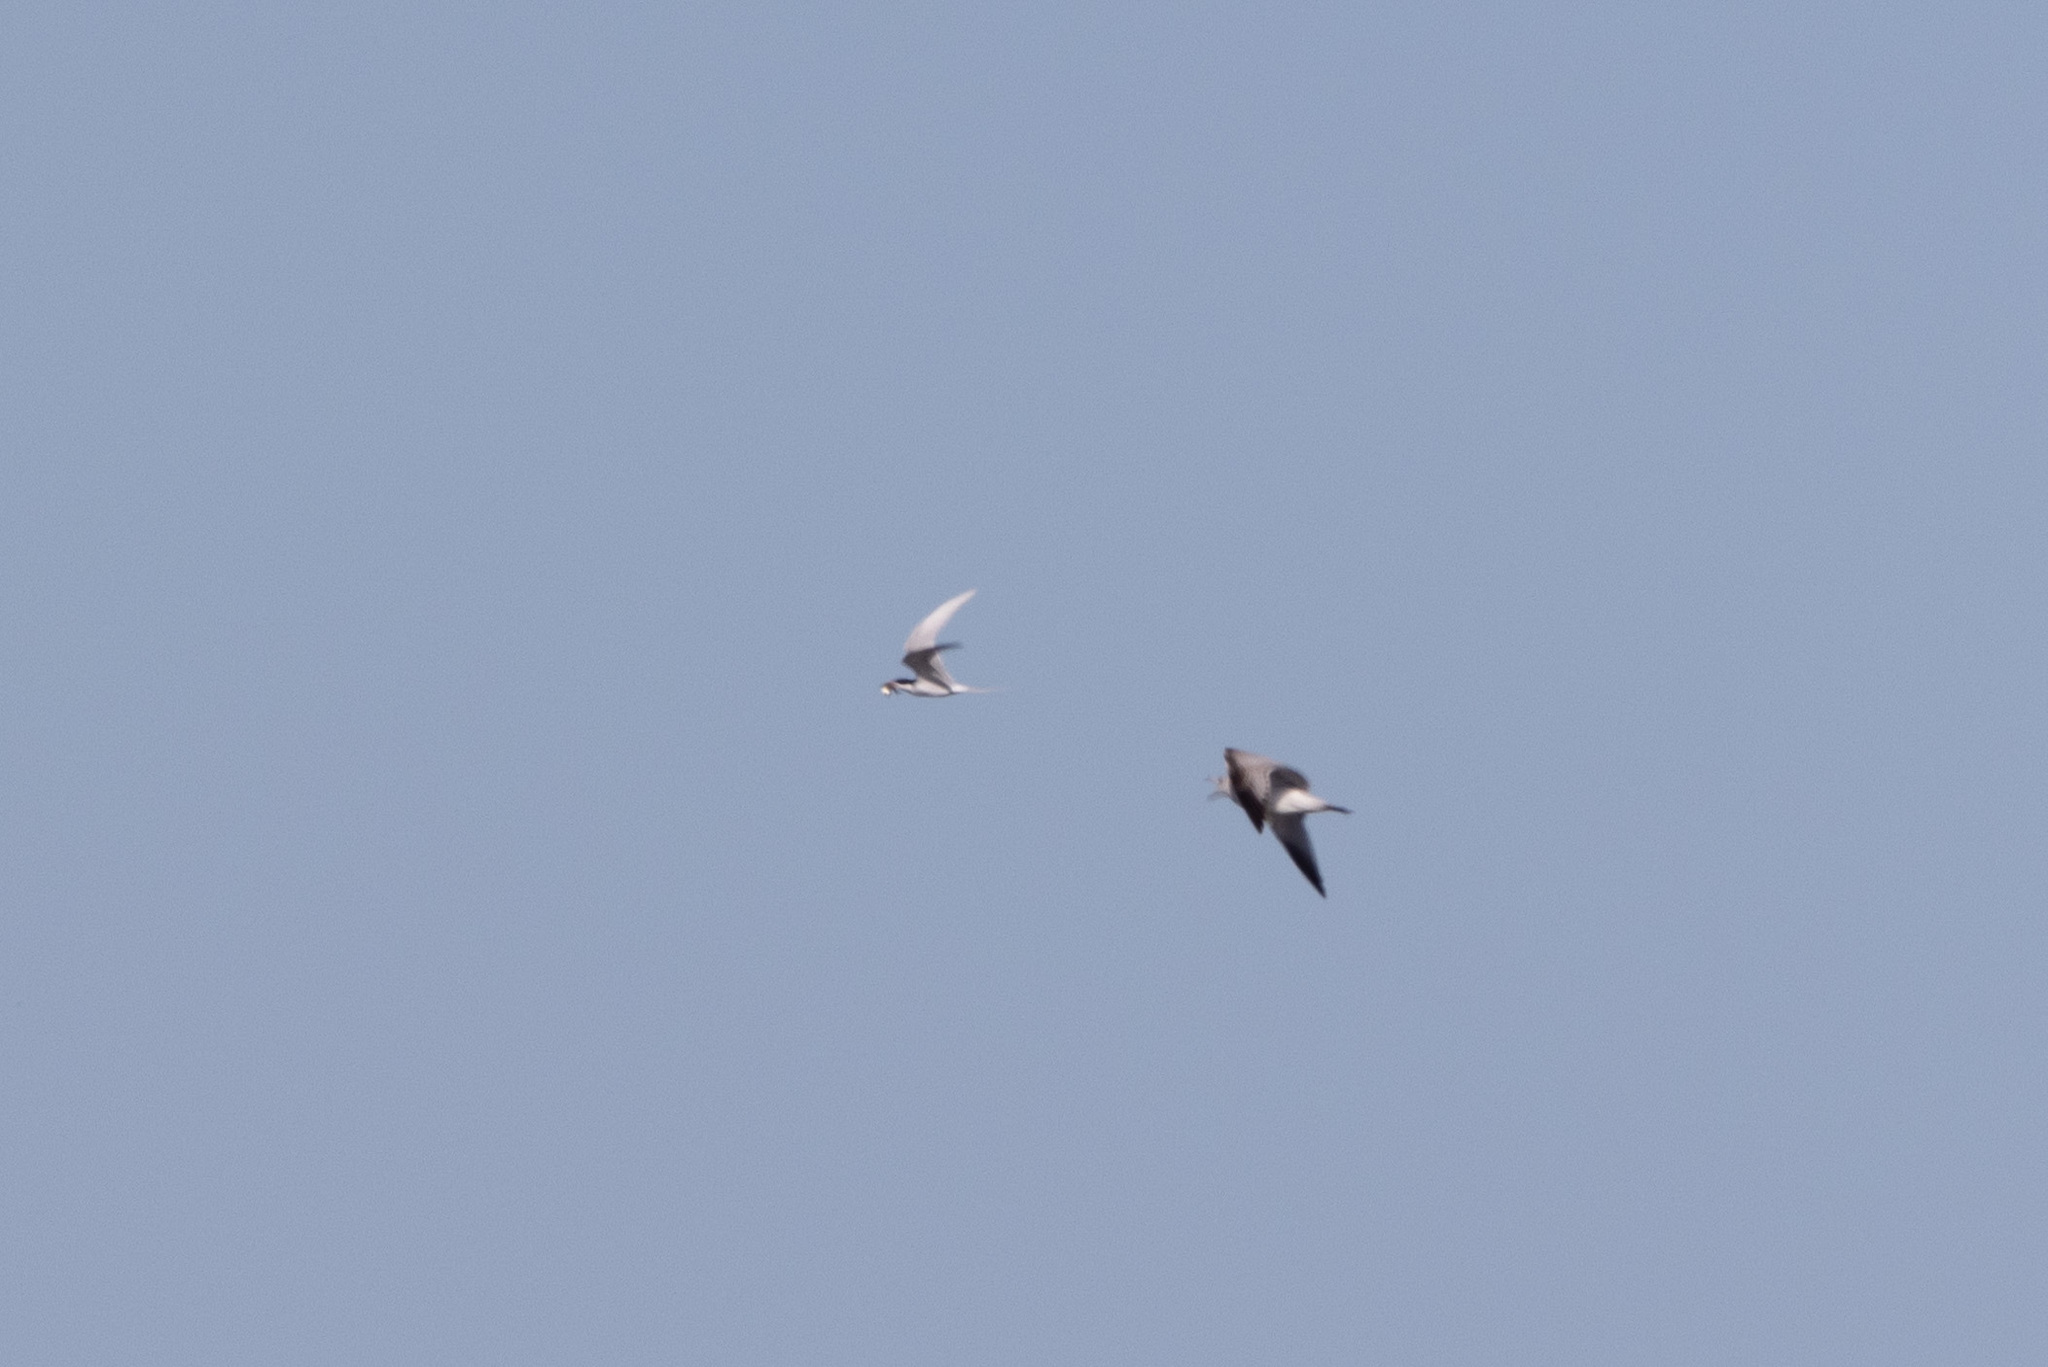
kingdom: Animalia
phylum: Chordata
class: Aves
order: Charadriiformes
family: Laridae
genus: Sterna
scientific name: Sterna forsteri
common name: Forster's tern
